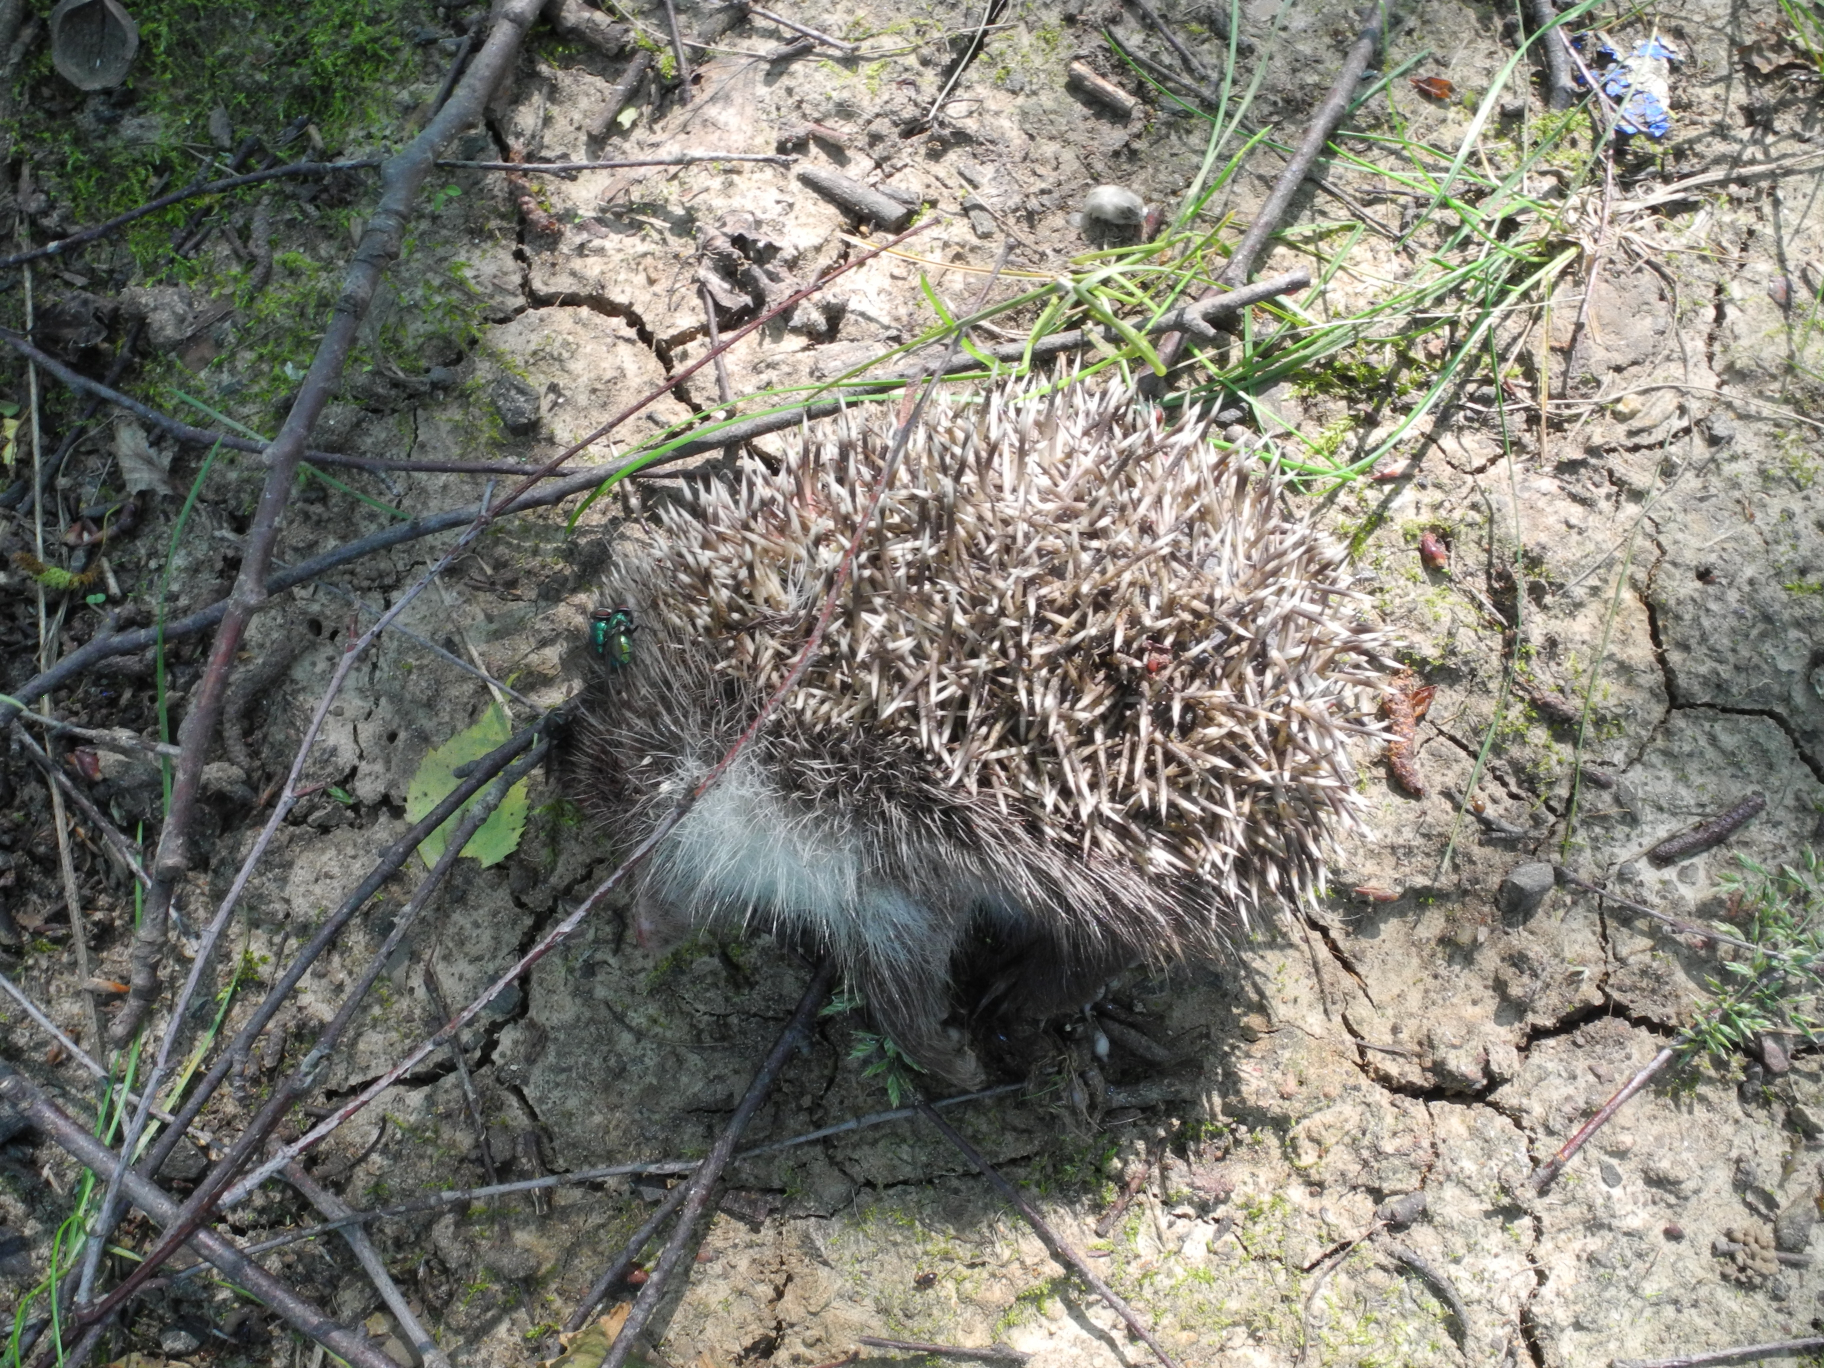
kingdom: Animalia
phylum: Chordata
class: Mammalia
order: Erinaceomorpha
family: Erinaceidae
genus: Erinaceus
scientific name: Erinaceus europaeus
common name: West european hedgehog
